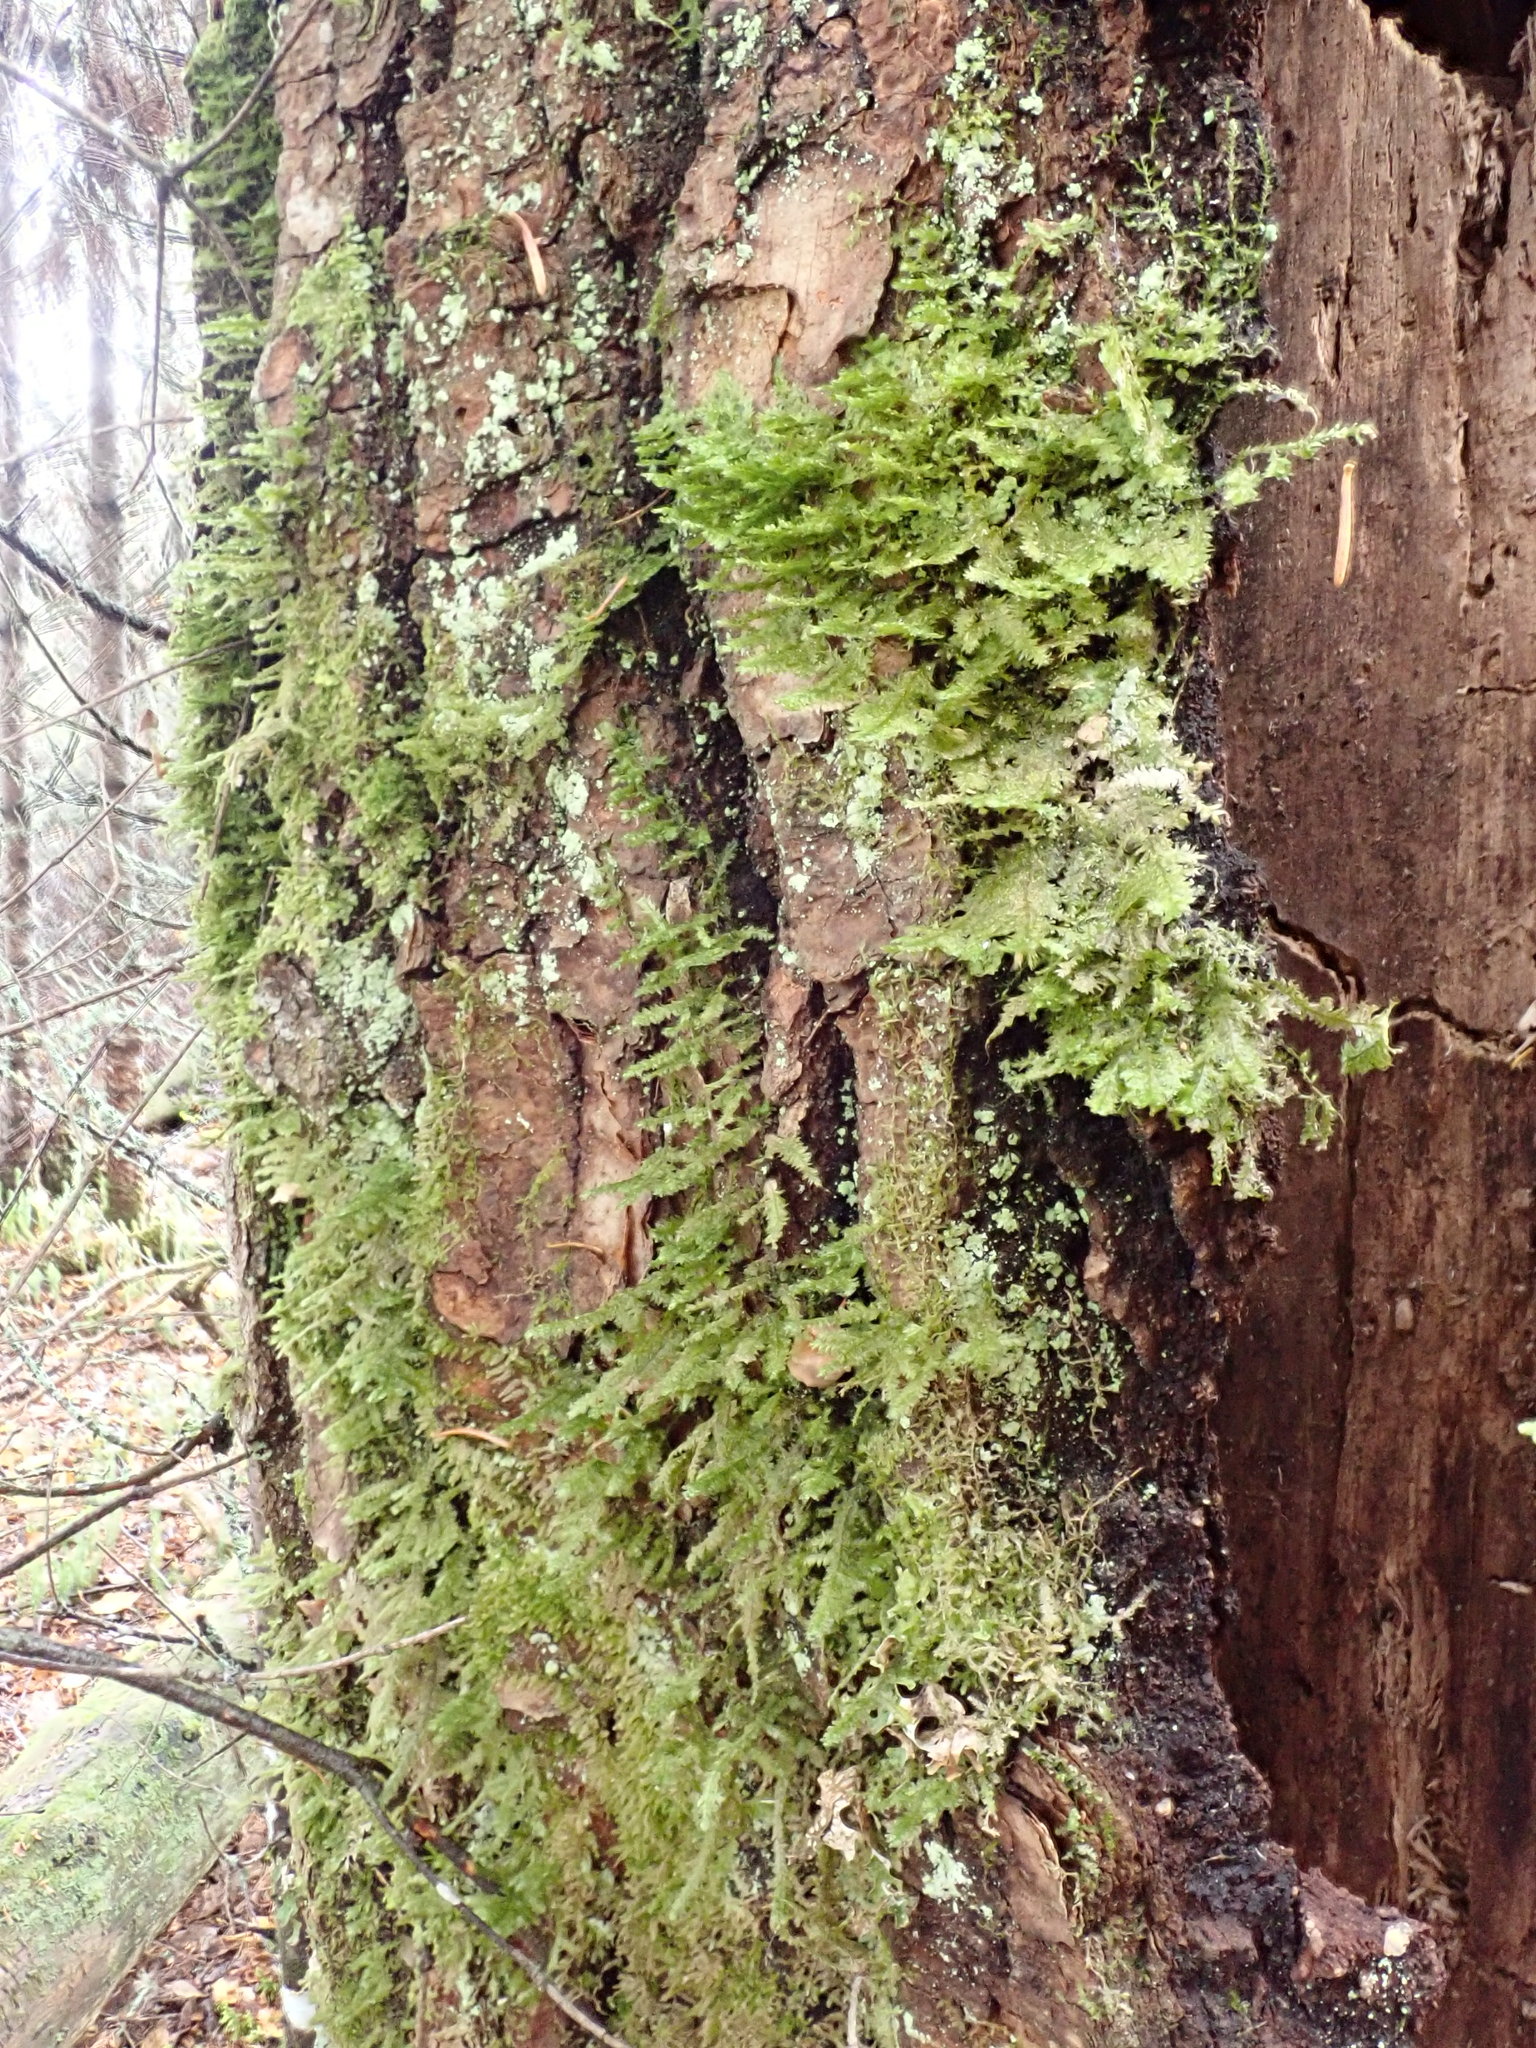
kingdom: Plantae
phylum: Bryophyta
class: Bryopsida
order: Hypnales
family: Neckeraceae
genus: Neckera
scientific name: Neckera pennata
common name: Feathery neckera
